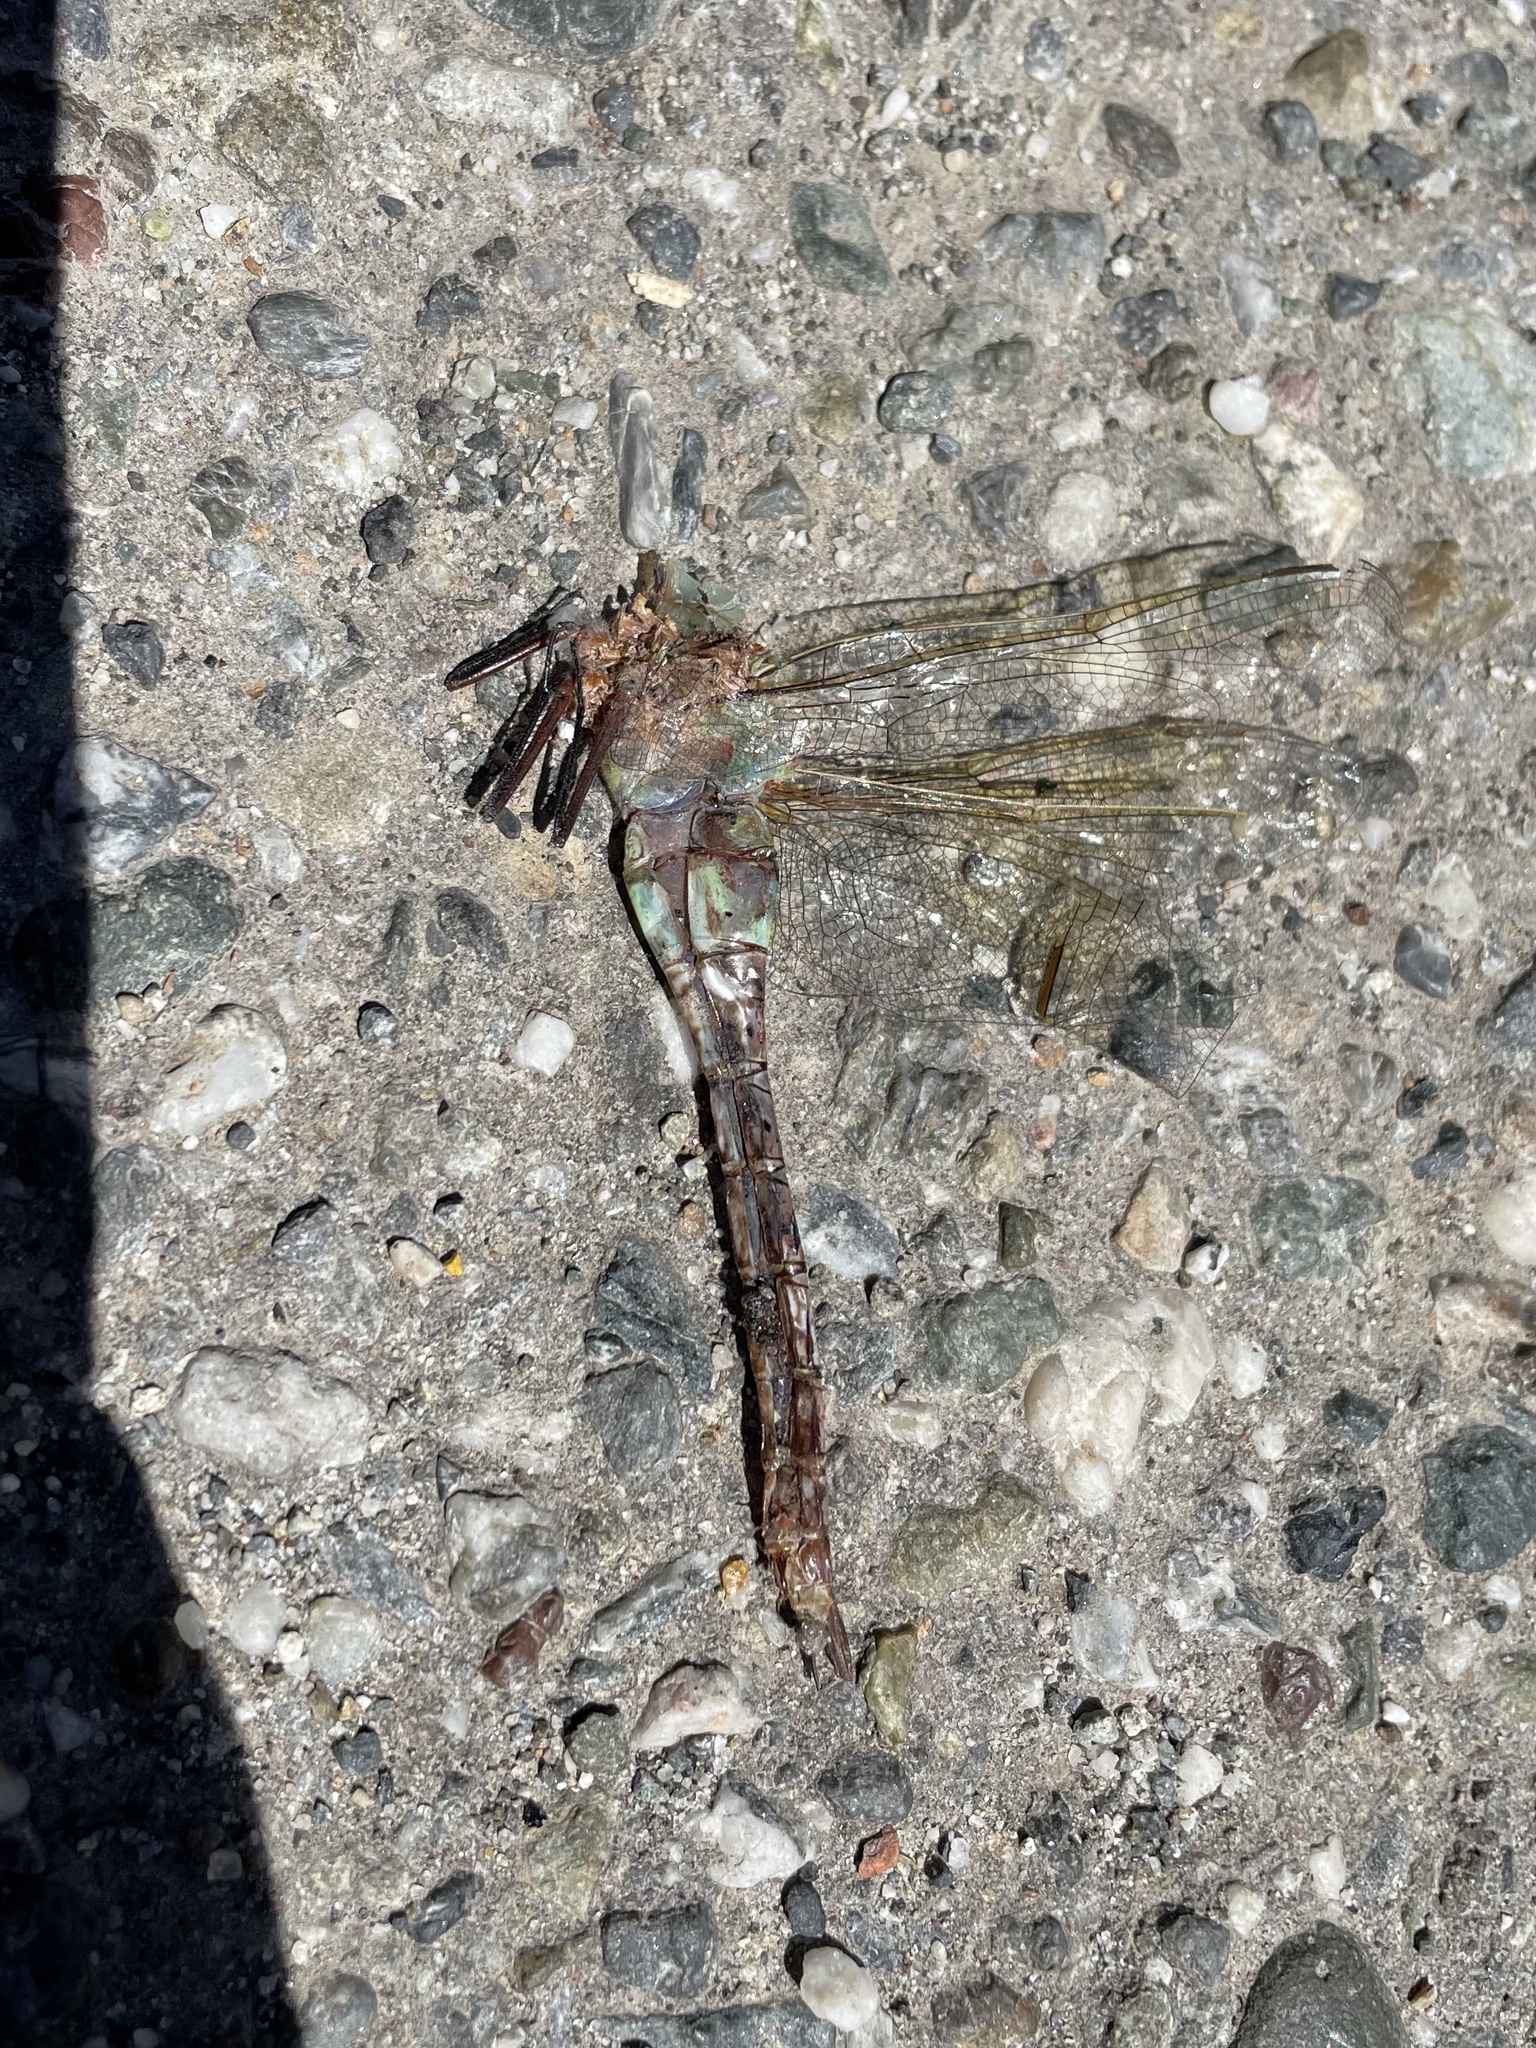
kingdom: Animalia
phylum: Arthropoda
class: Insecta
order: Odonata
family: Aeshnidae
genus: Anax
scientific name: Anax junius
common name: Common green darner
